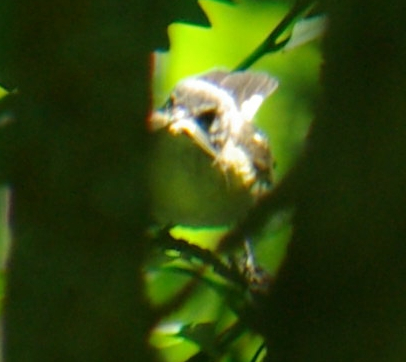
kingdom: Animalia
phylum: Chordata
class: Aves
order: Passeriformes
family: Parulidae
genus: Setophaga
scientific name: Setophaga ruticilla
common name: American redstart
